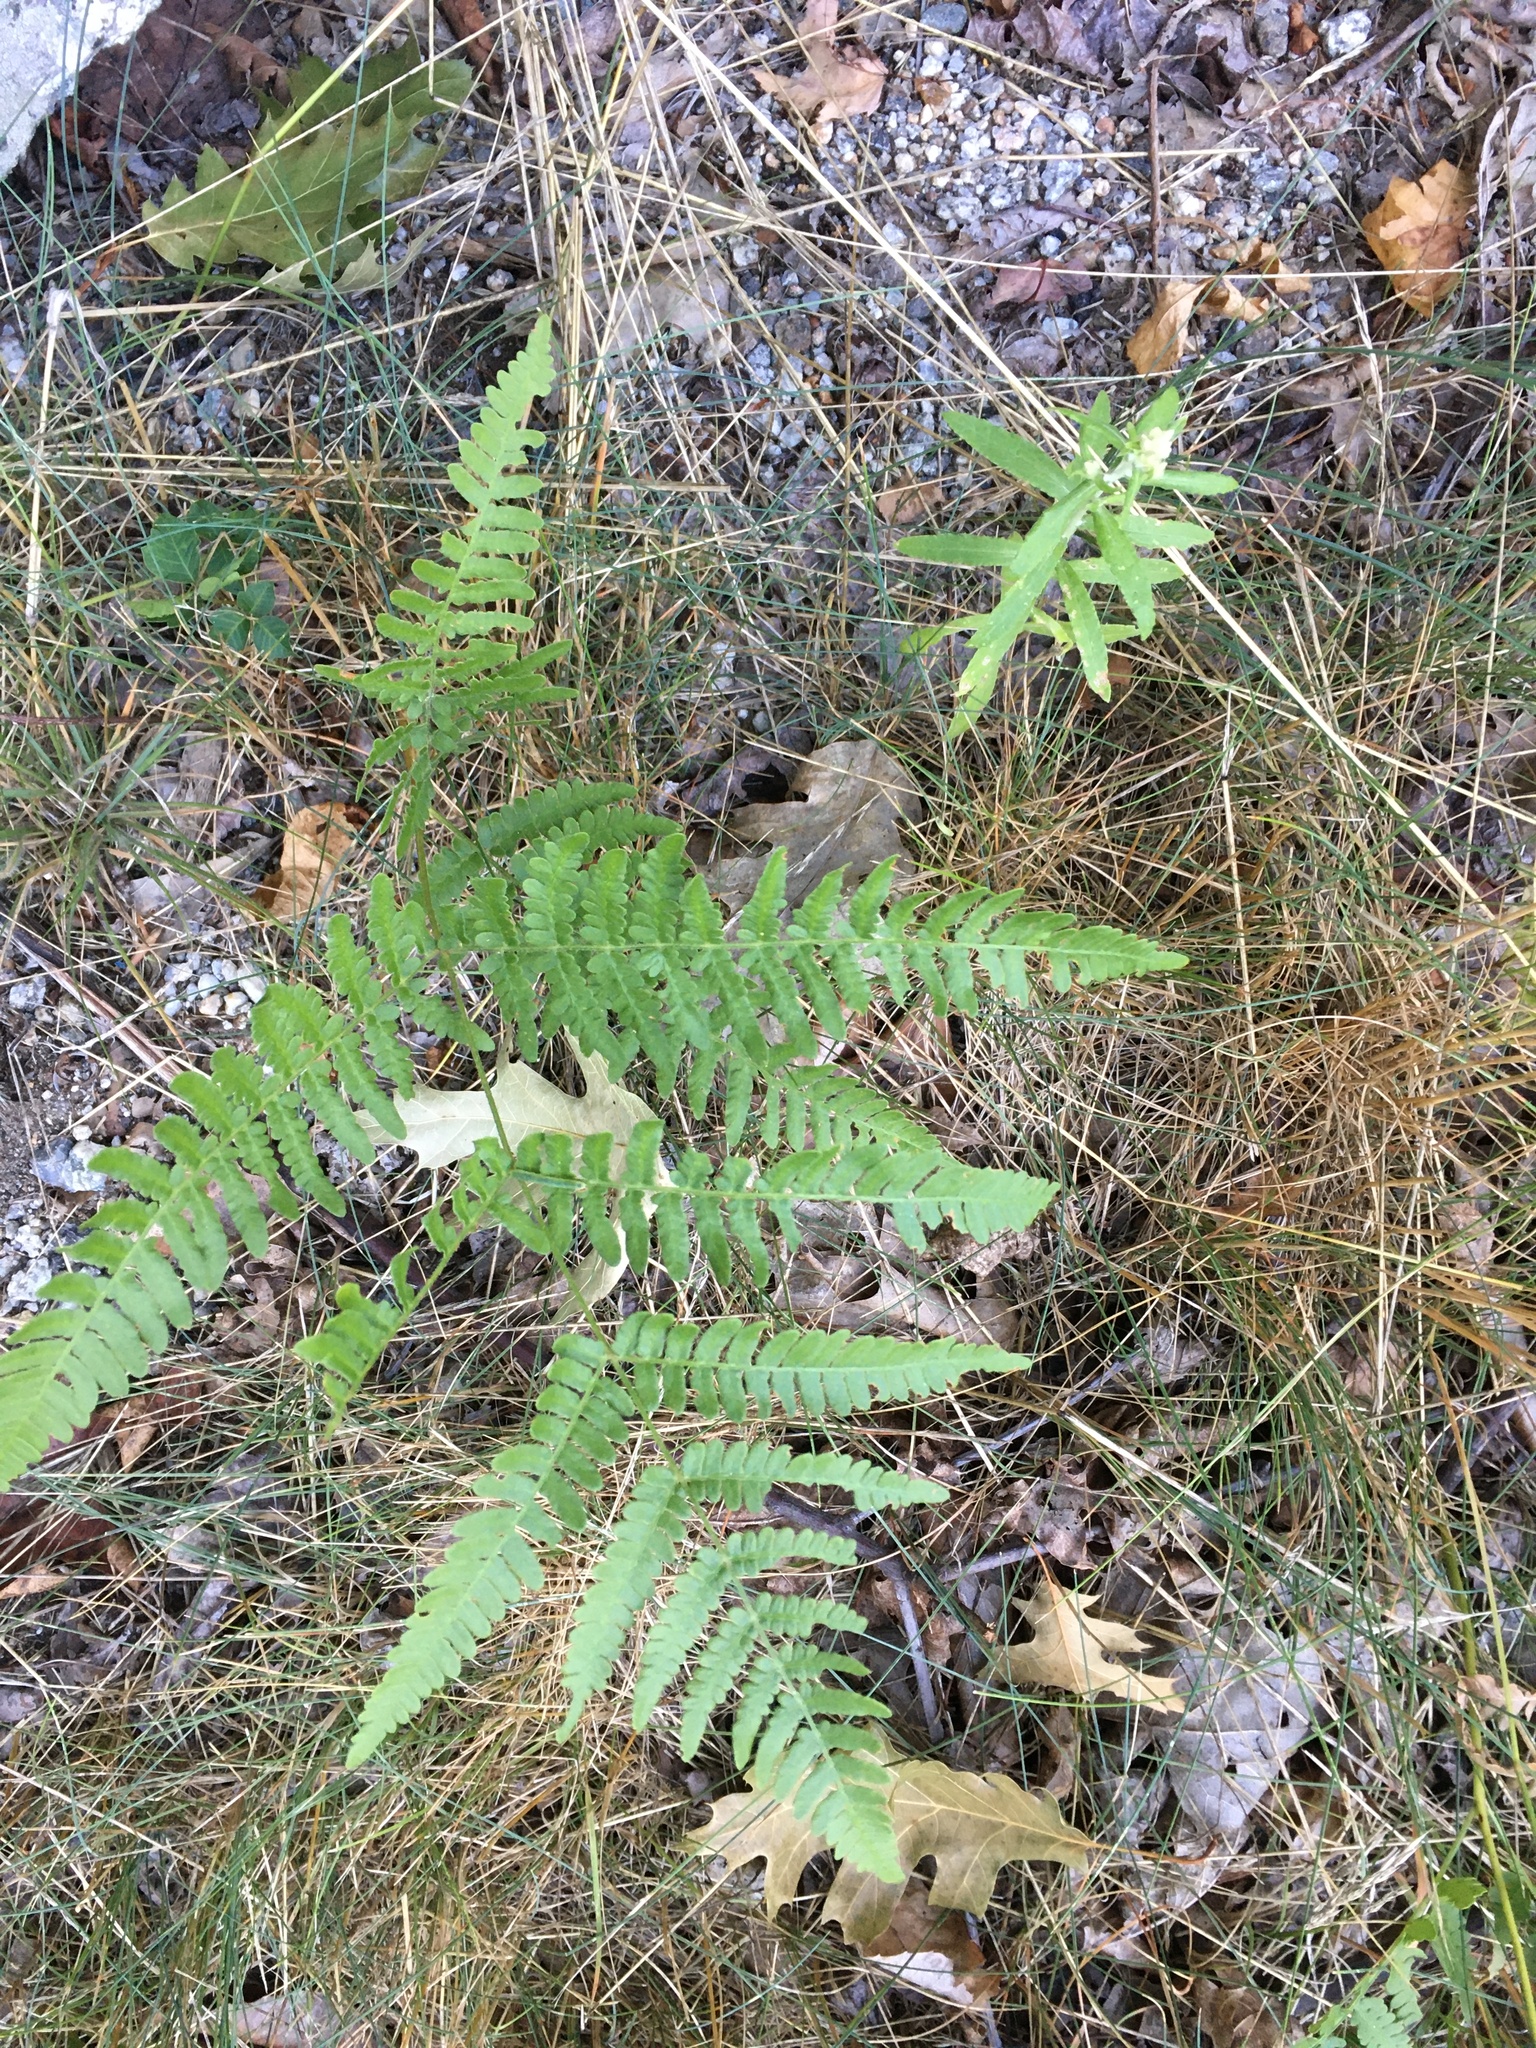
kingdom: Plantae
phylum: Tracheophyta
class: Polypodiopsida
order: Polypodiales
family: Dennstaedtiaceae
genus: Pteridium
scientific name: Pteridium aquilinum
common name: Bracken
